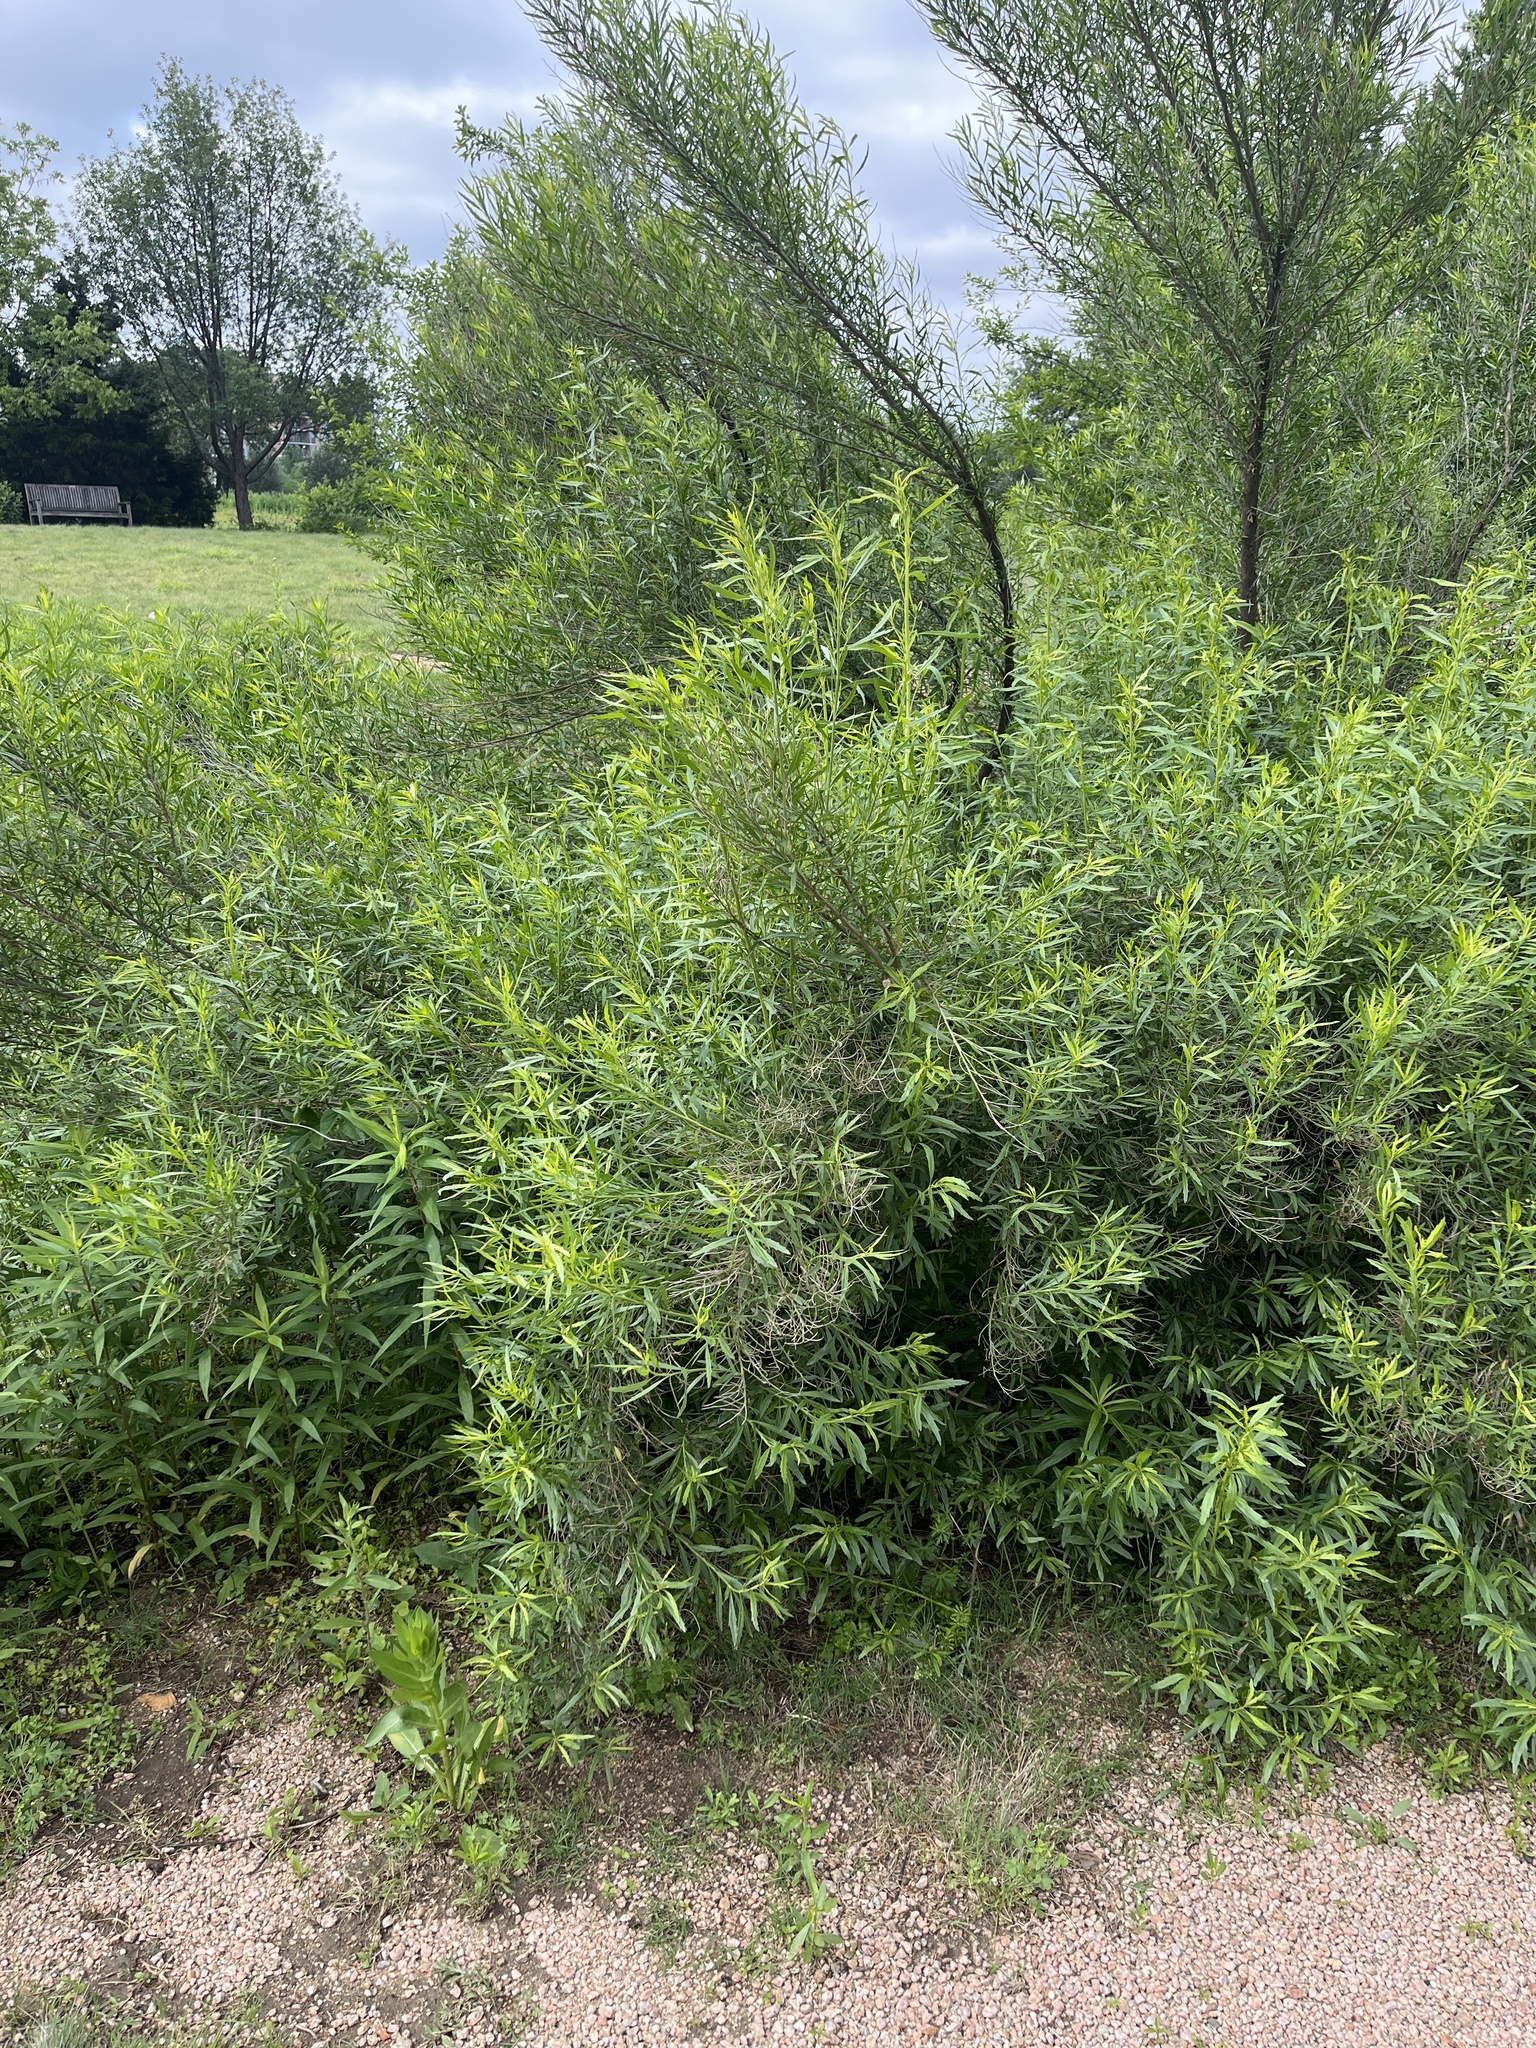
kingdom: Plantae
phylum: Tracheophyta
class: Magnoliopsida
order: Asterales
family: Asteraceae
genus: Baccharis
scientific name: Baccharis neglecta
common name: Roosevelt-weed
